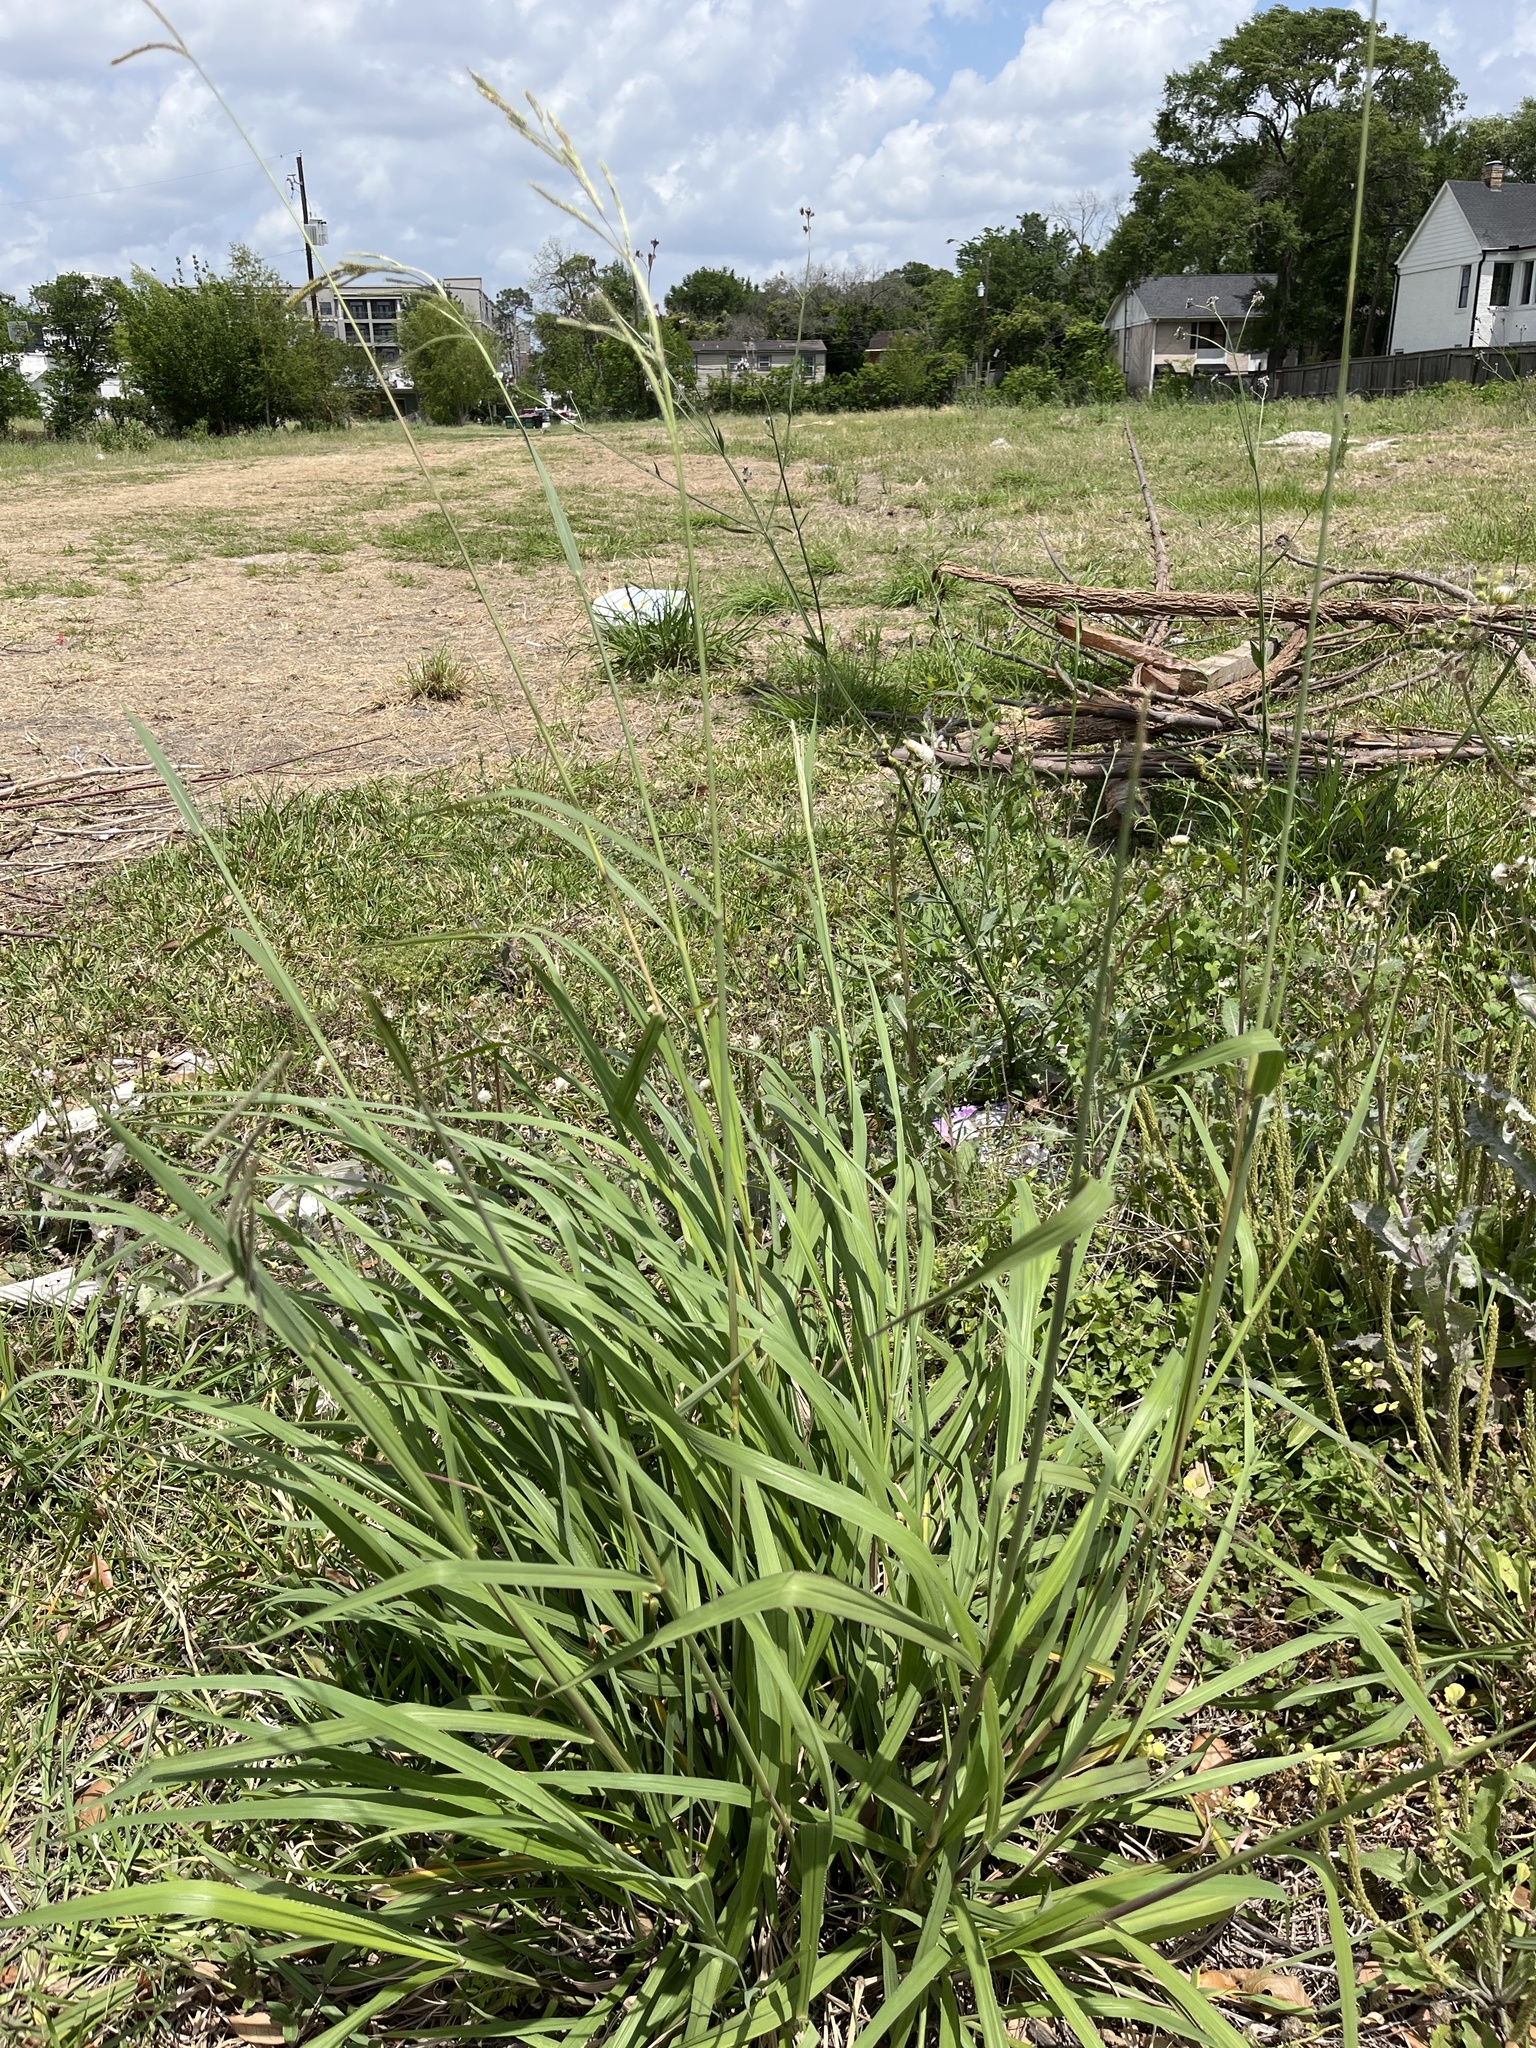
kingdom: Plantae
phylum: Tracheophyta
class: Liliopsida
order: Poales
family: Poaceae
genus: Paspalum
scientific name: Paspalum urvillei
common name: Vasey's grass
